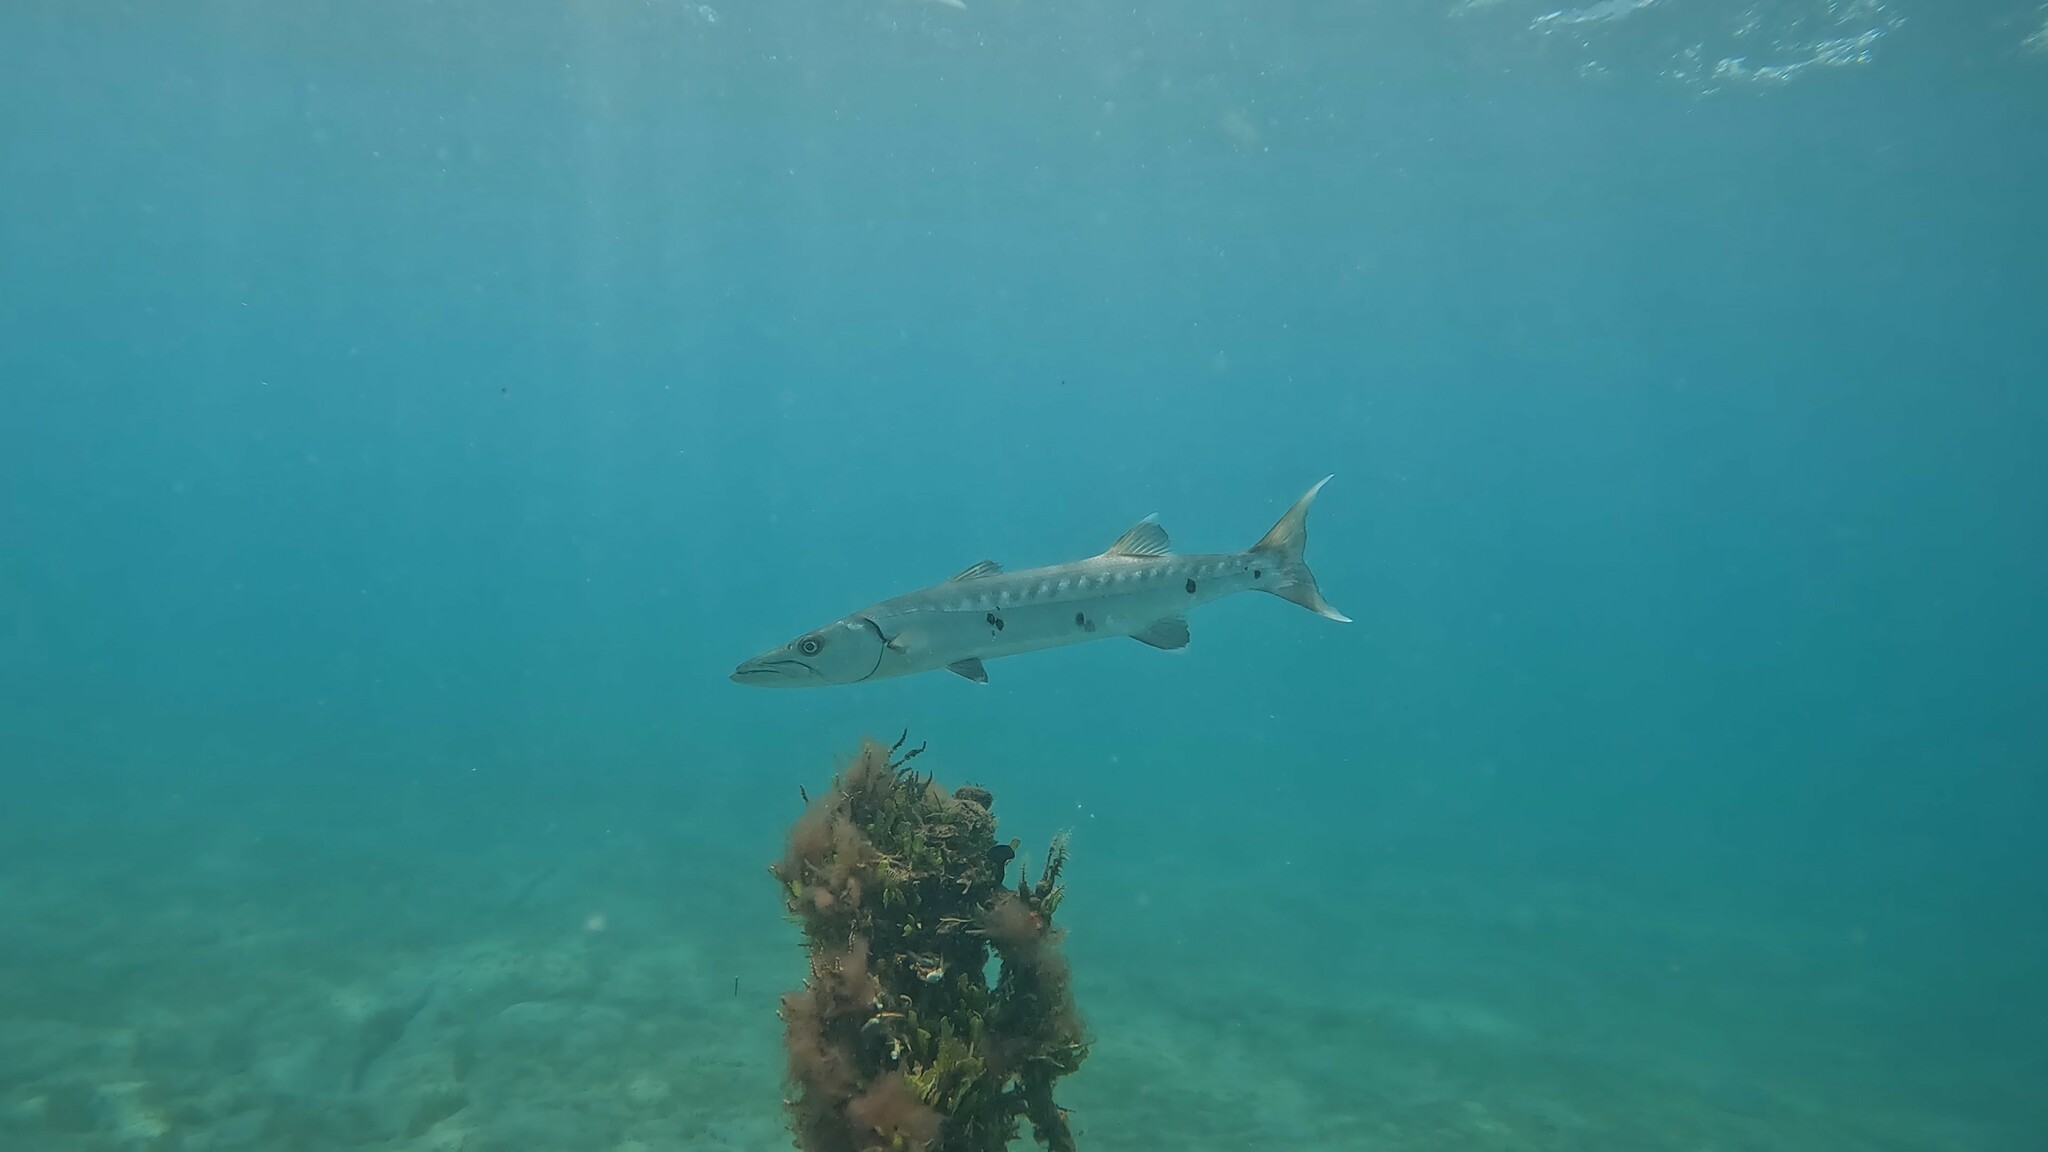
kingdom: Animalia
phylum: Chordata
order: Perciformes
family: Sphyraenidae
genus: Sphyraena
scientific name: Sphyraena barracuda
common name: Great barracuda
